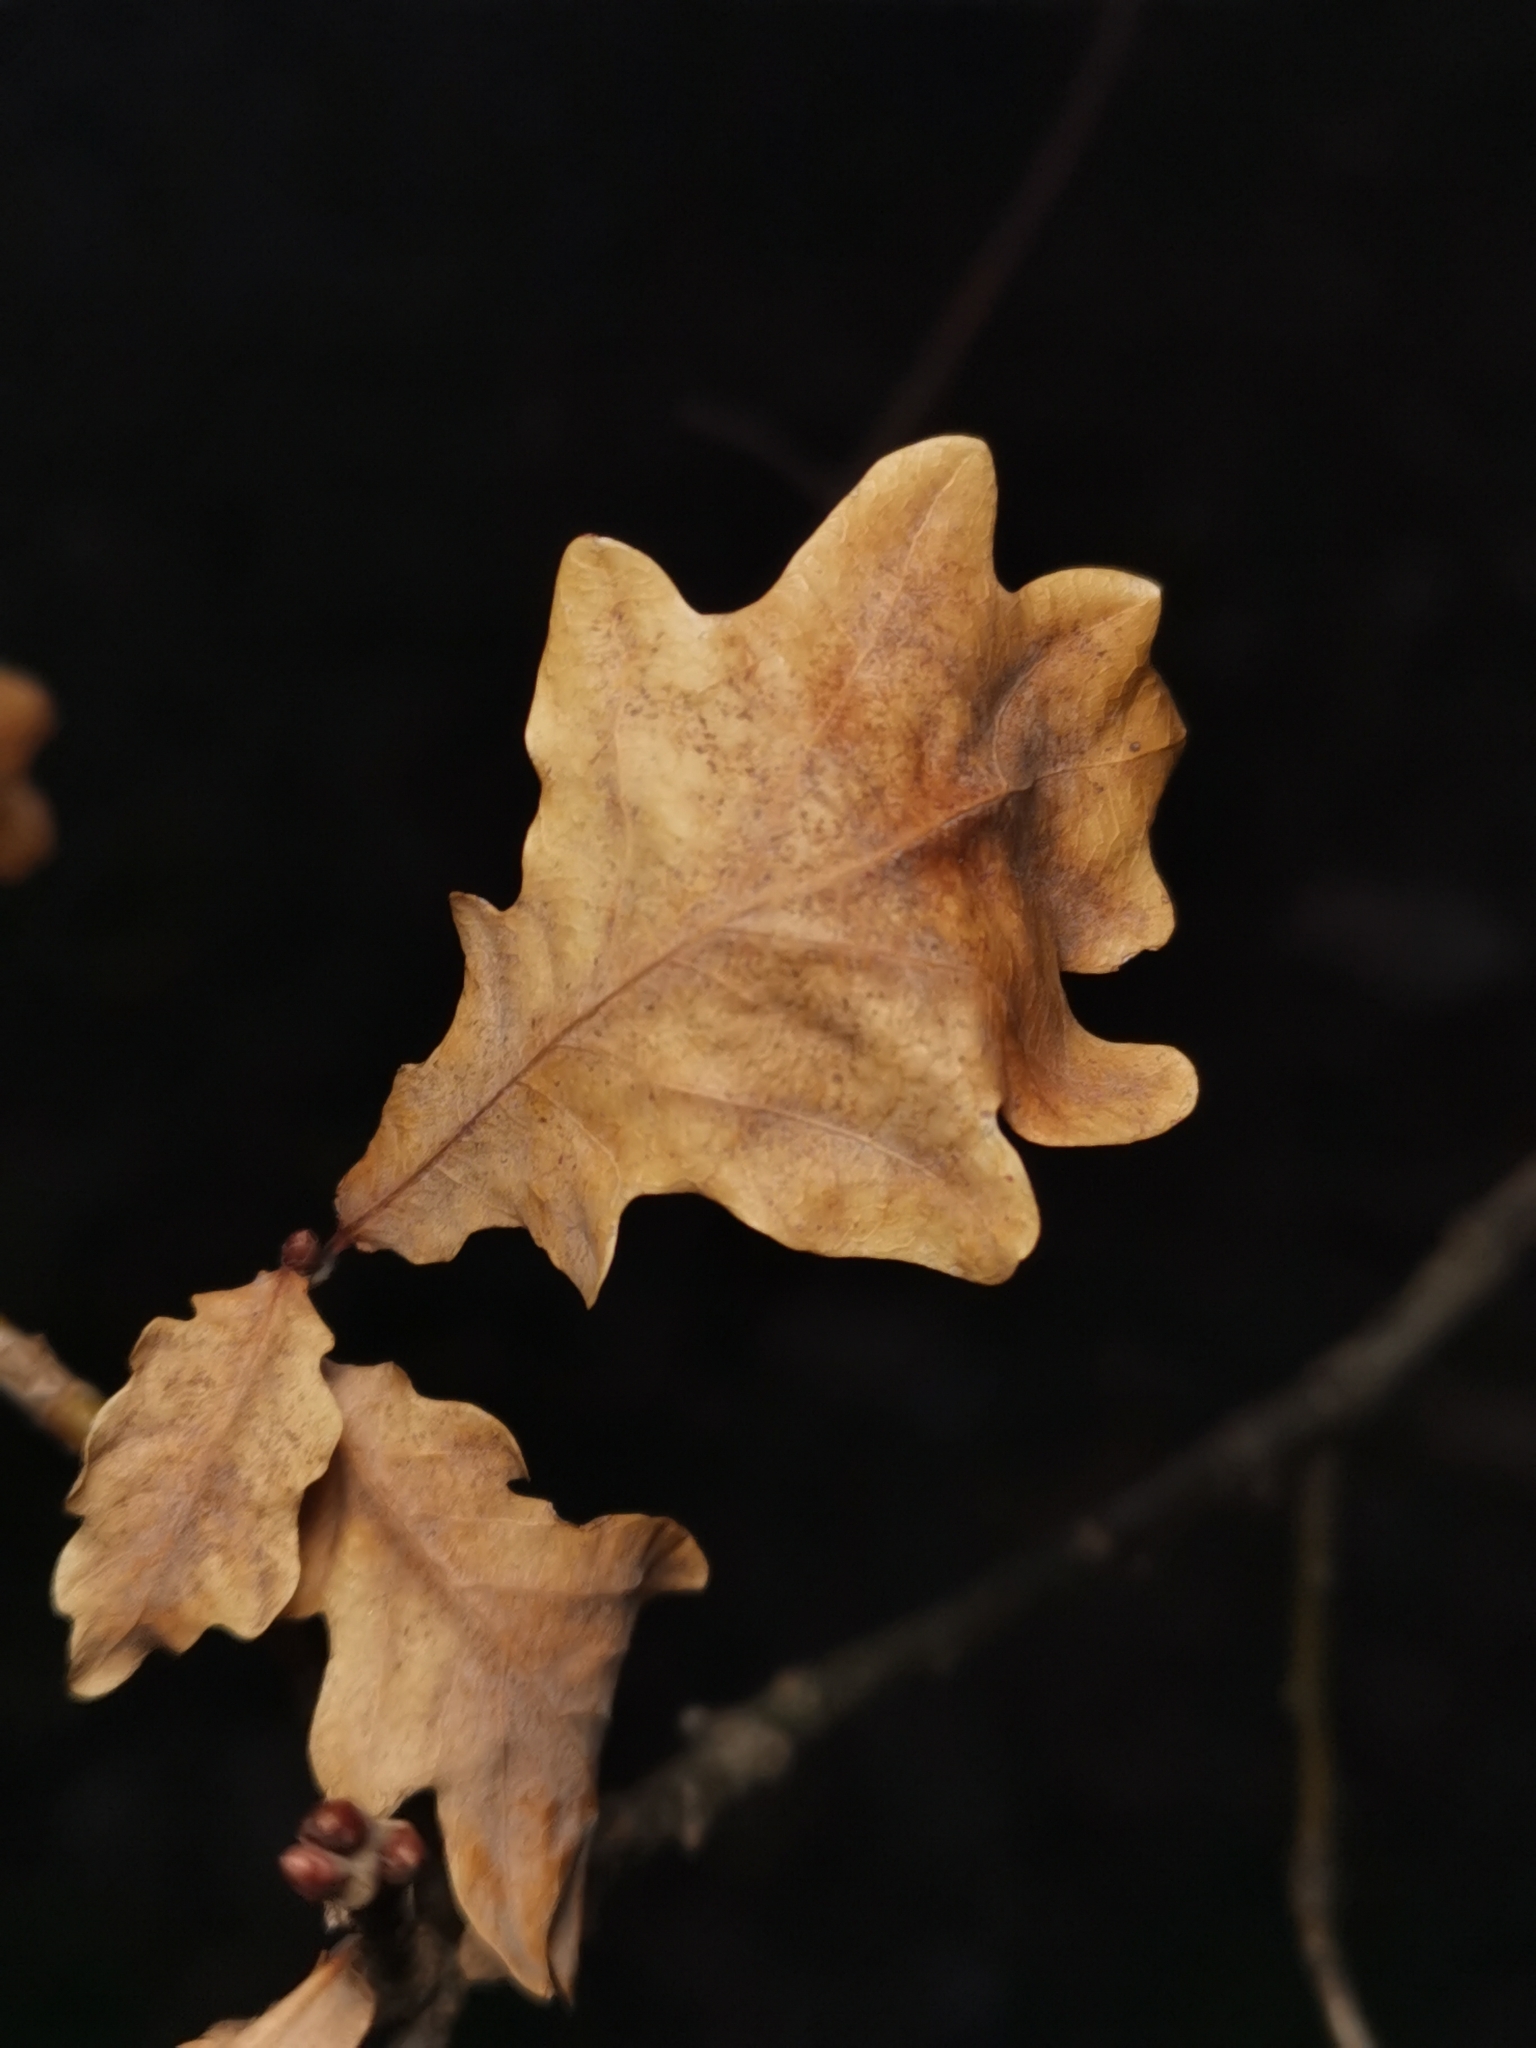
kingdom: Plantae
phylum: Tracheophyta
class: Magnoliopsida
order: Fagales
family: Fagaceae
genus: Quercus
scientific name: Quercus robur
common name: Pedunculate oak
